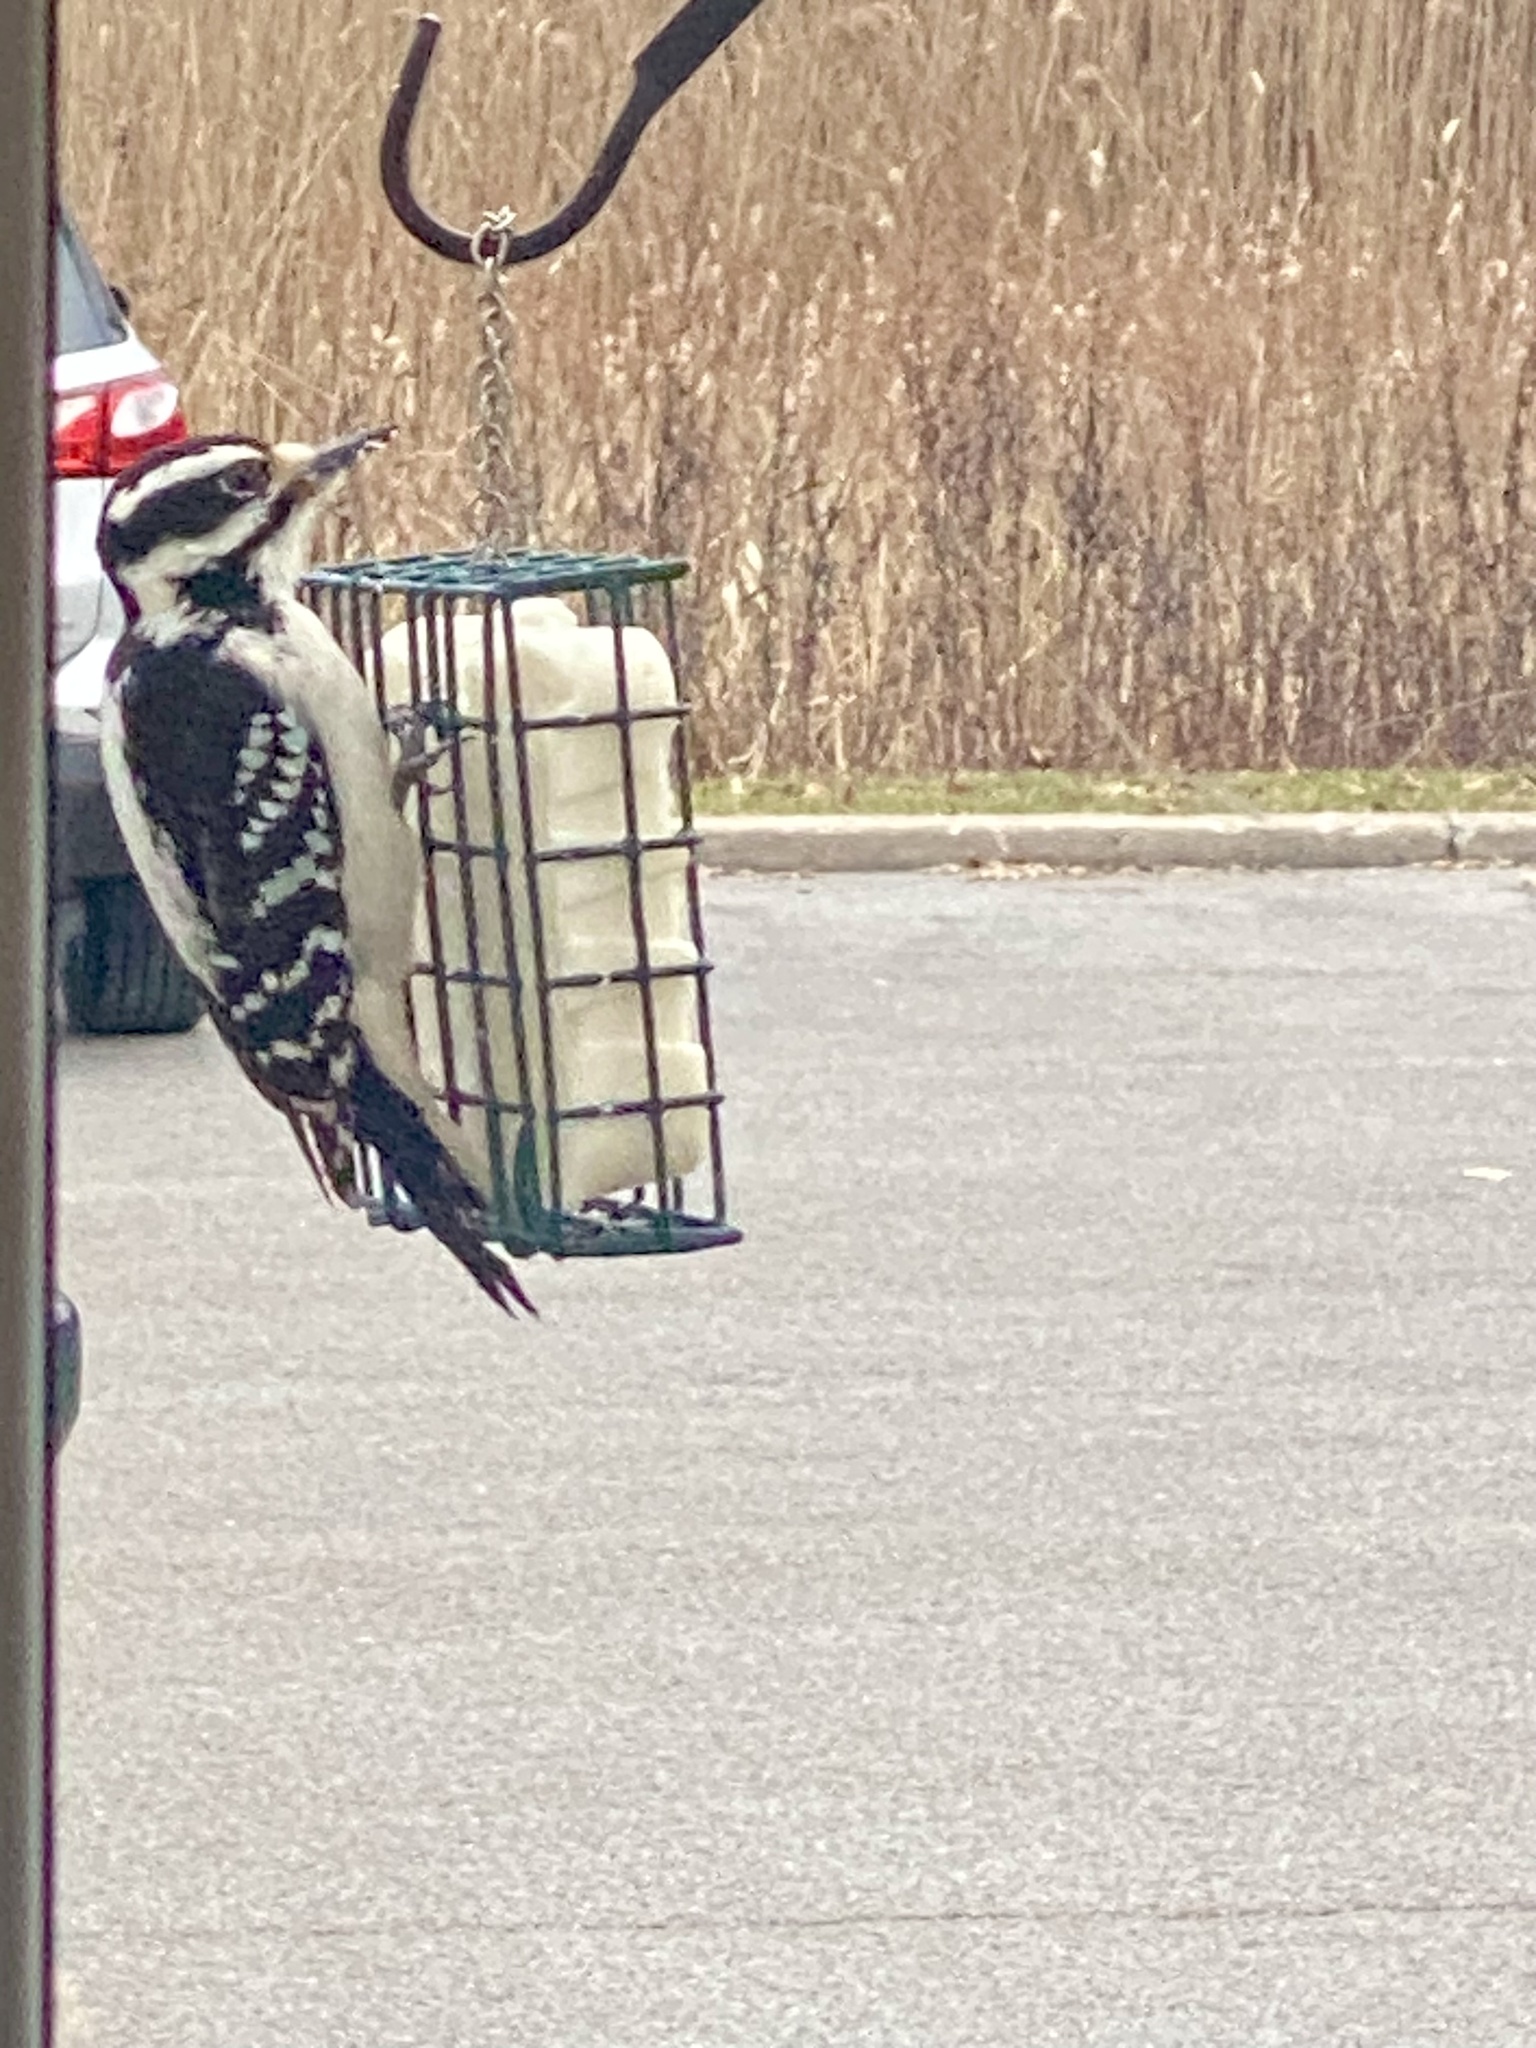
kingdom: Animalia
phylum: Chordata
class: Aves
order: Piciformes
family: Picidae
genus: Leuconotopicus
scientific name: Leuconotopicus villosus
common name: Hairy woodpecker
